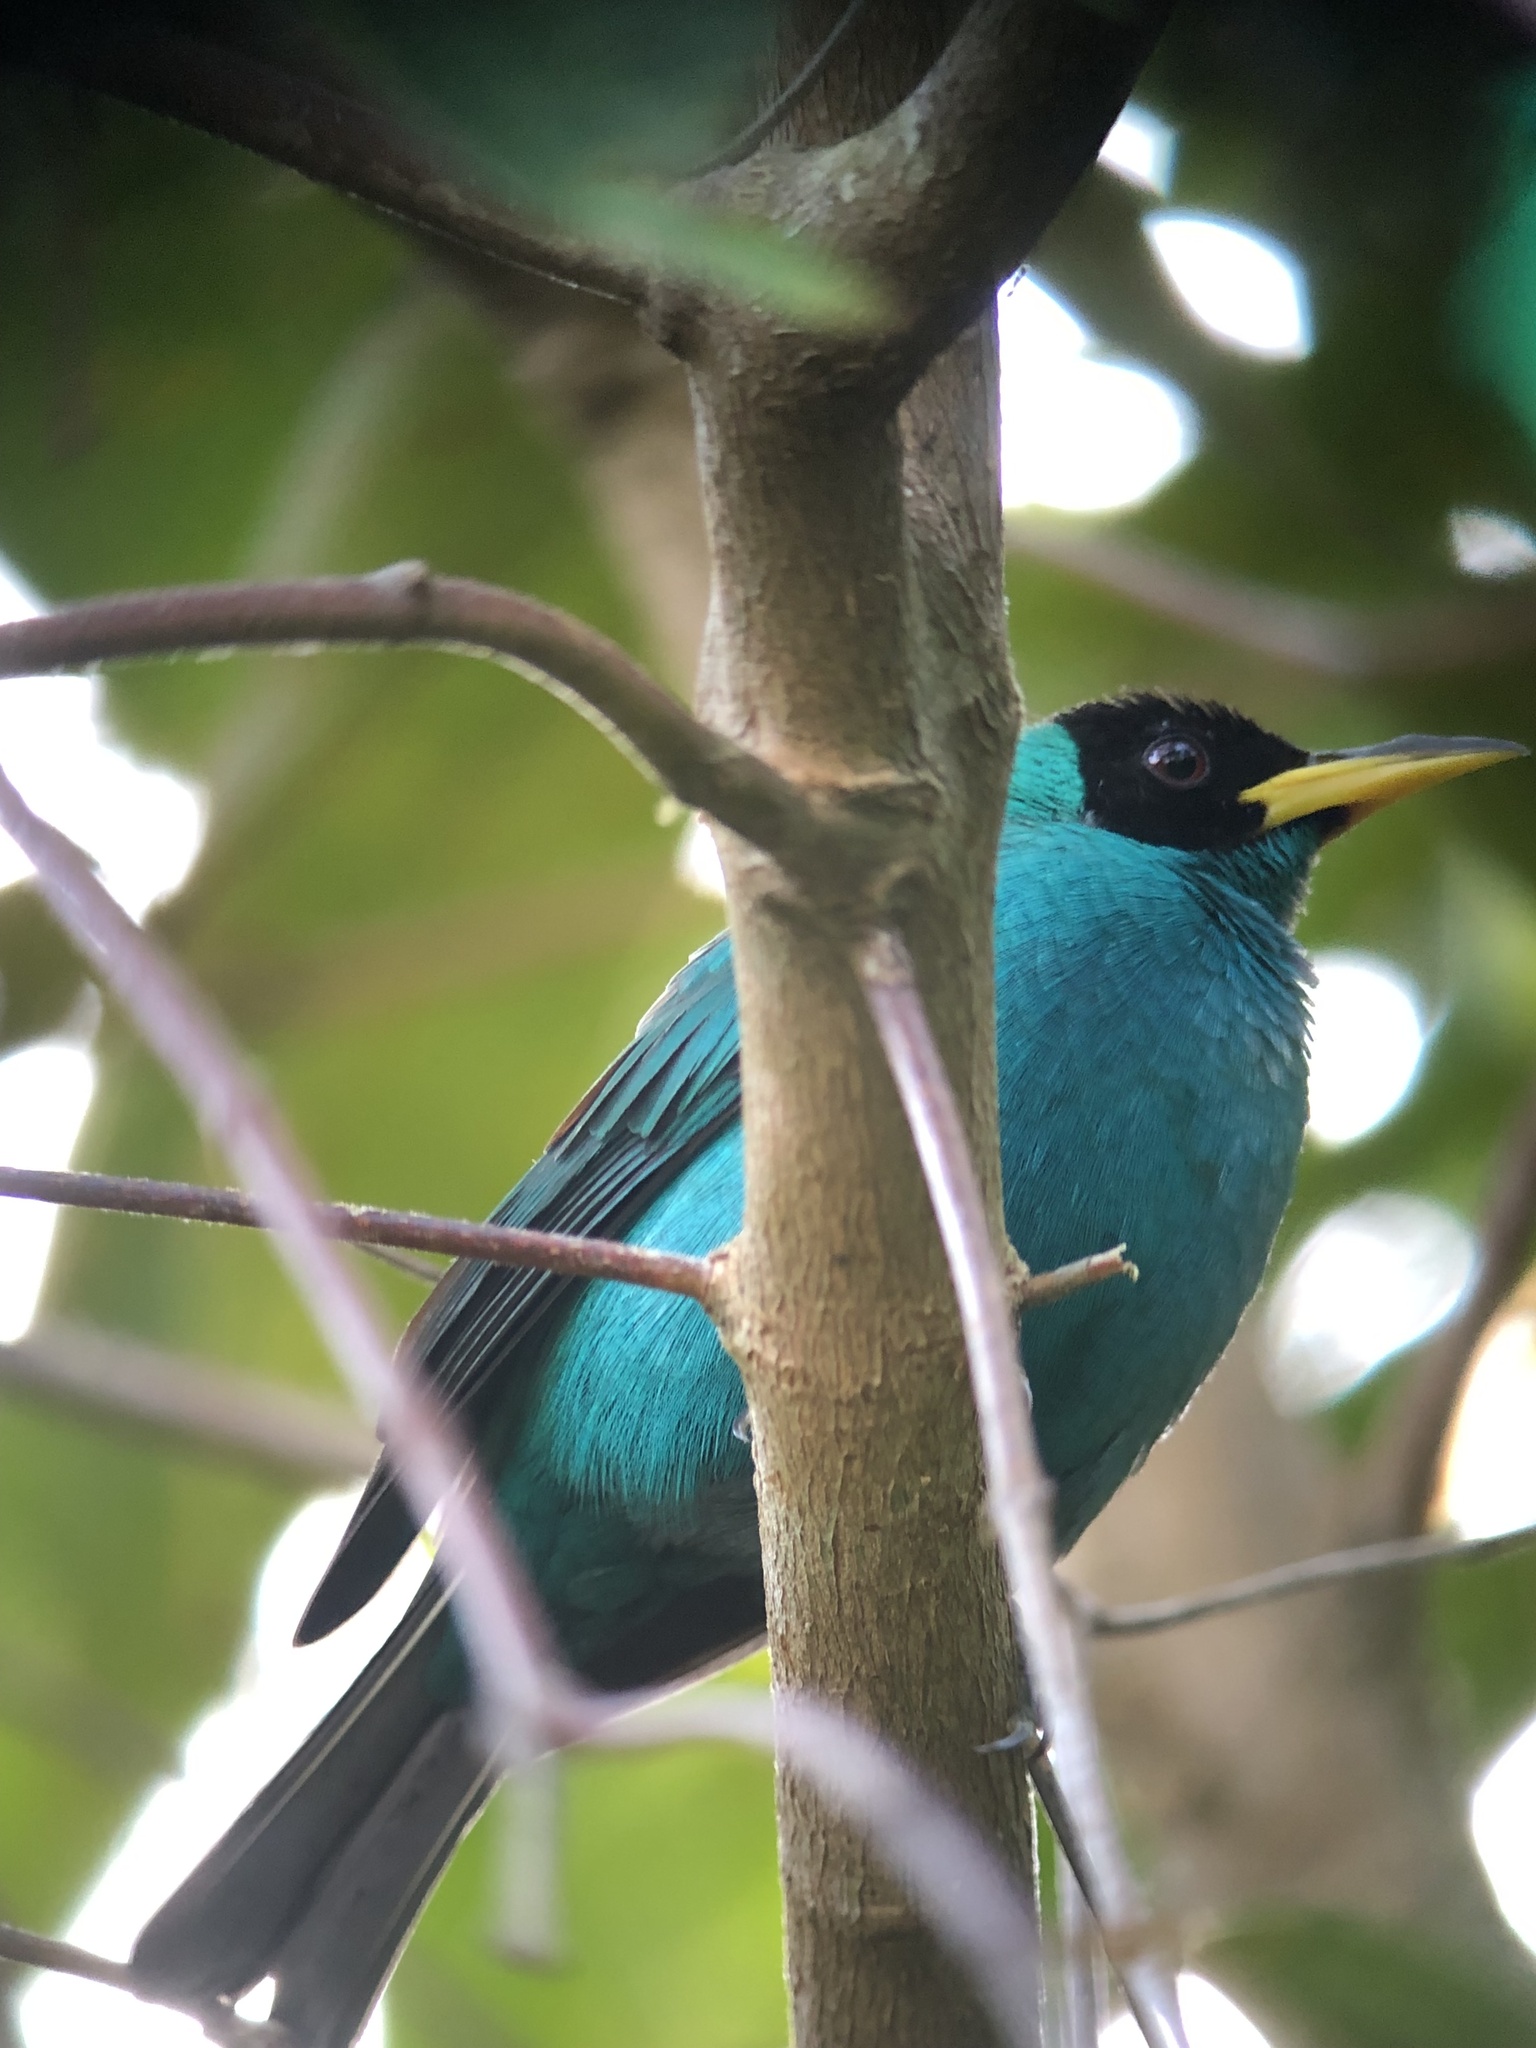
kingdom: Animalia
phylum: Chordata
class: Aves
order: Passeriformes
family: Thraupidae
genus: Chlorophanes
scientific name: Chlorophanes spiza
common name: Green honeycreeper
